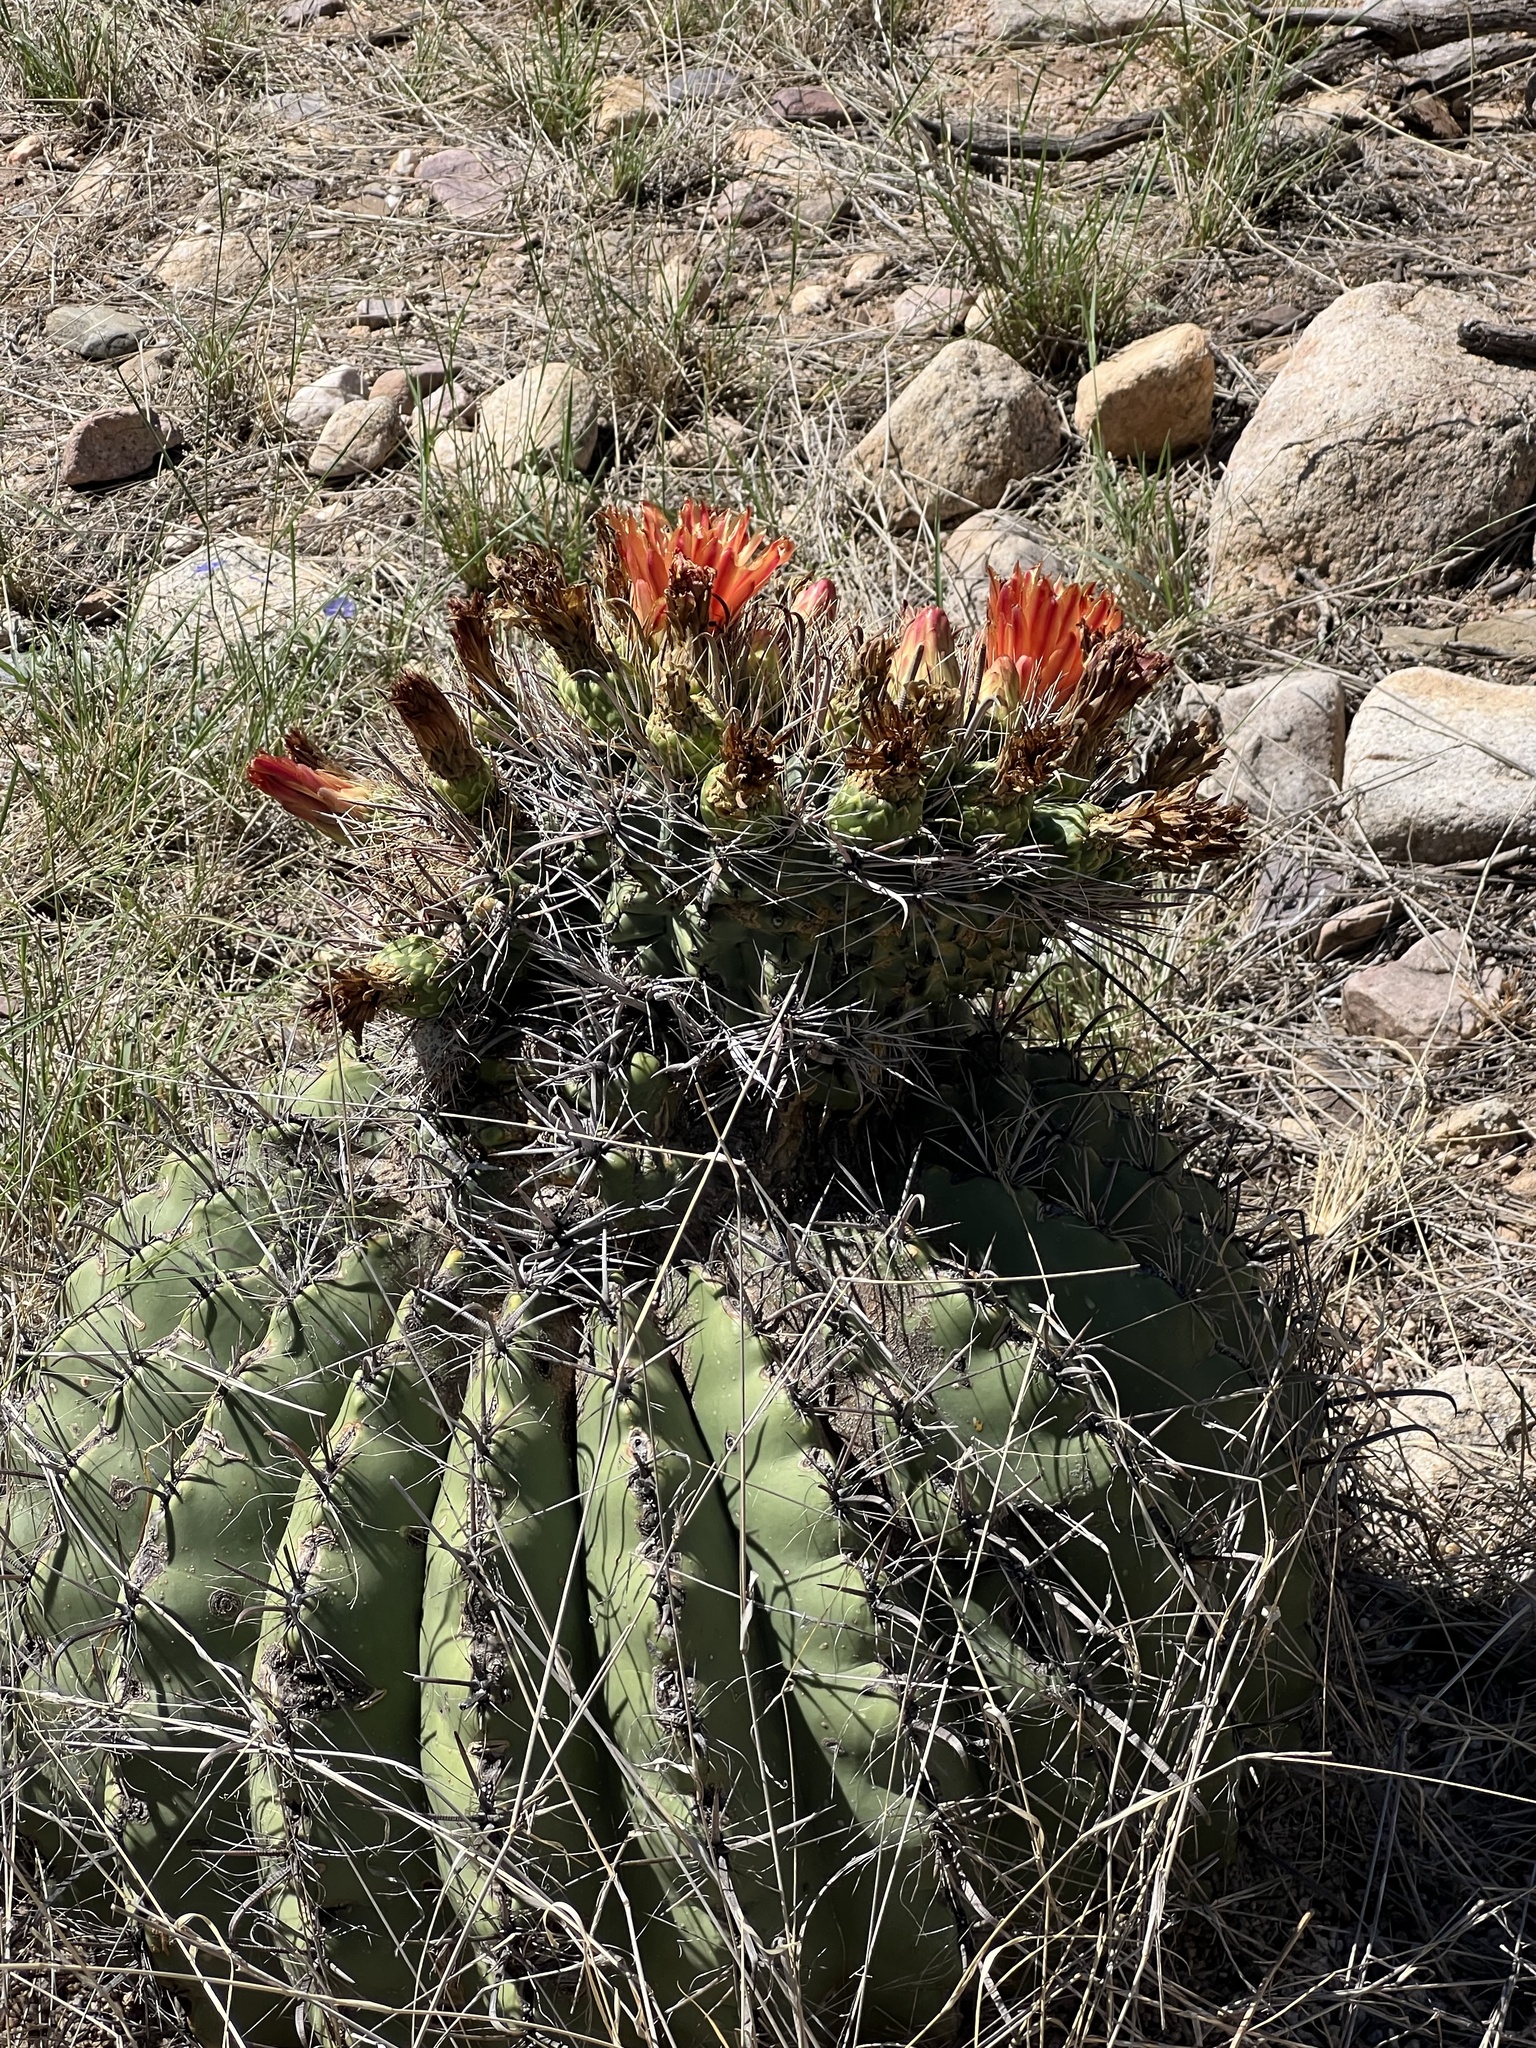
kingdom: Plantae
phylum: Tracheophyta
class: Magnoliopsida
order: Caryophyllales
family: Cactaceae
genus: Ferocactus
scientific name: Ferocactus wislizeni
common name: Candy barrel cactus
